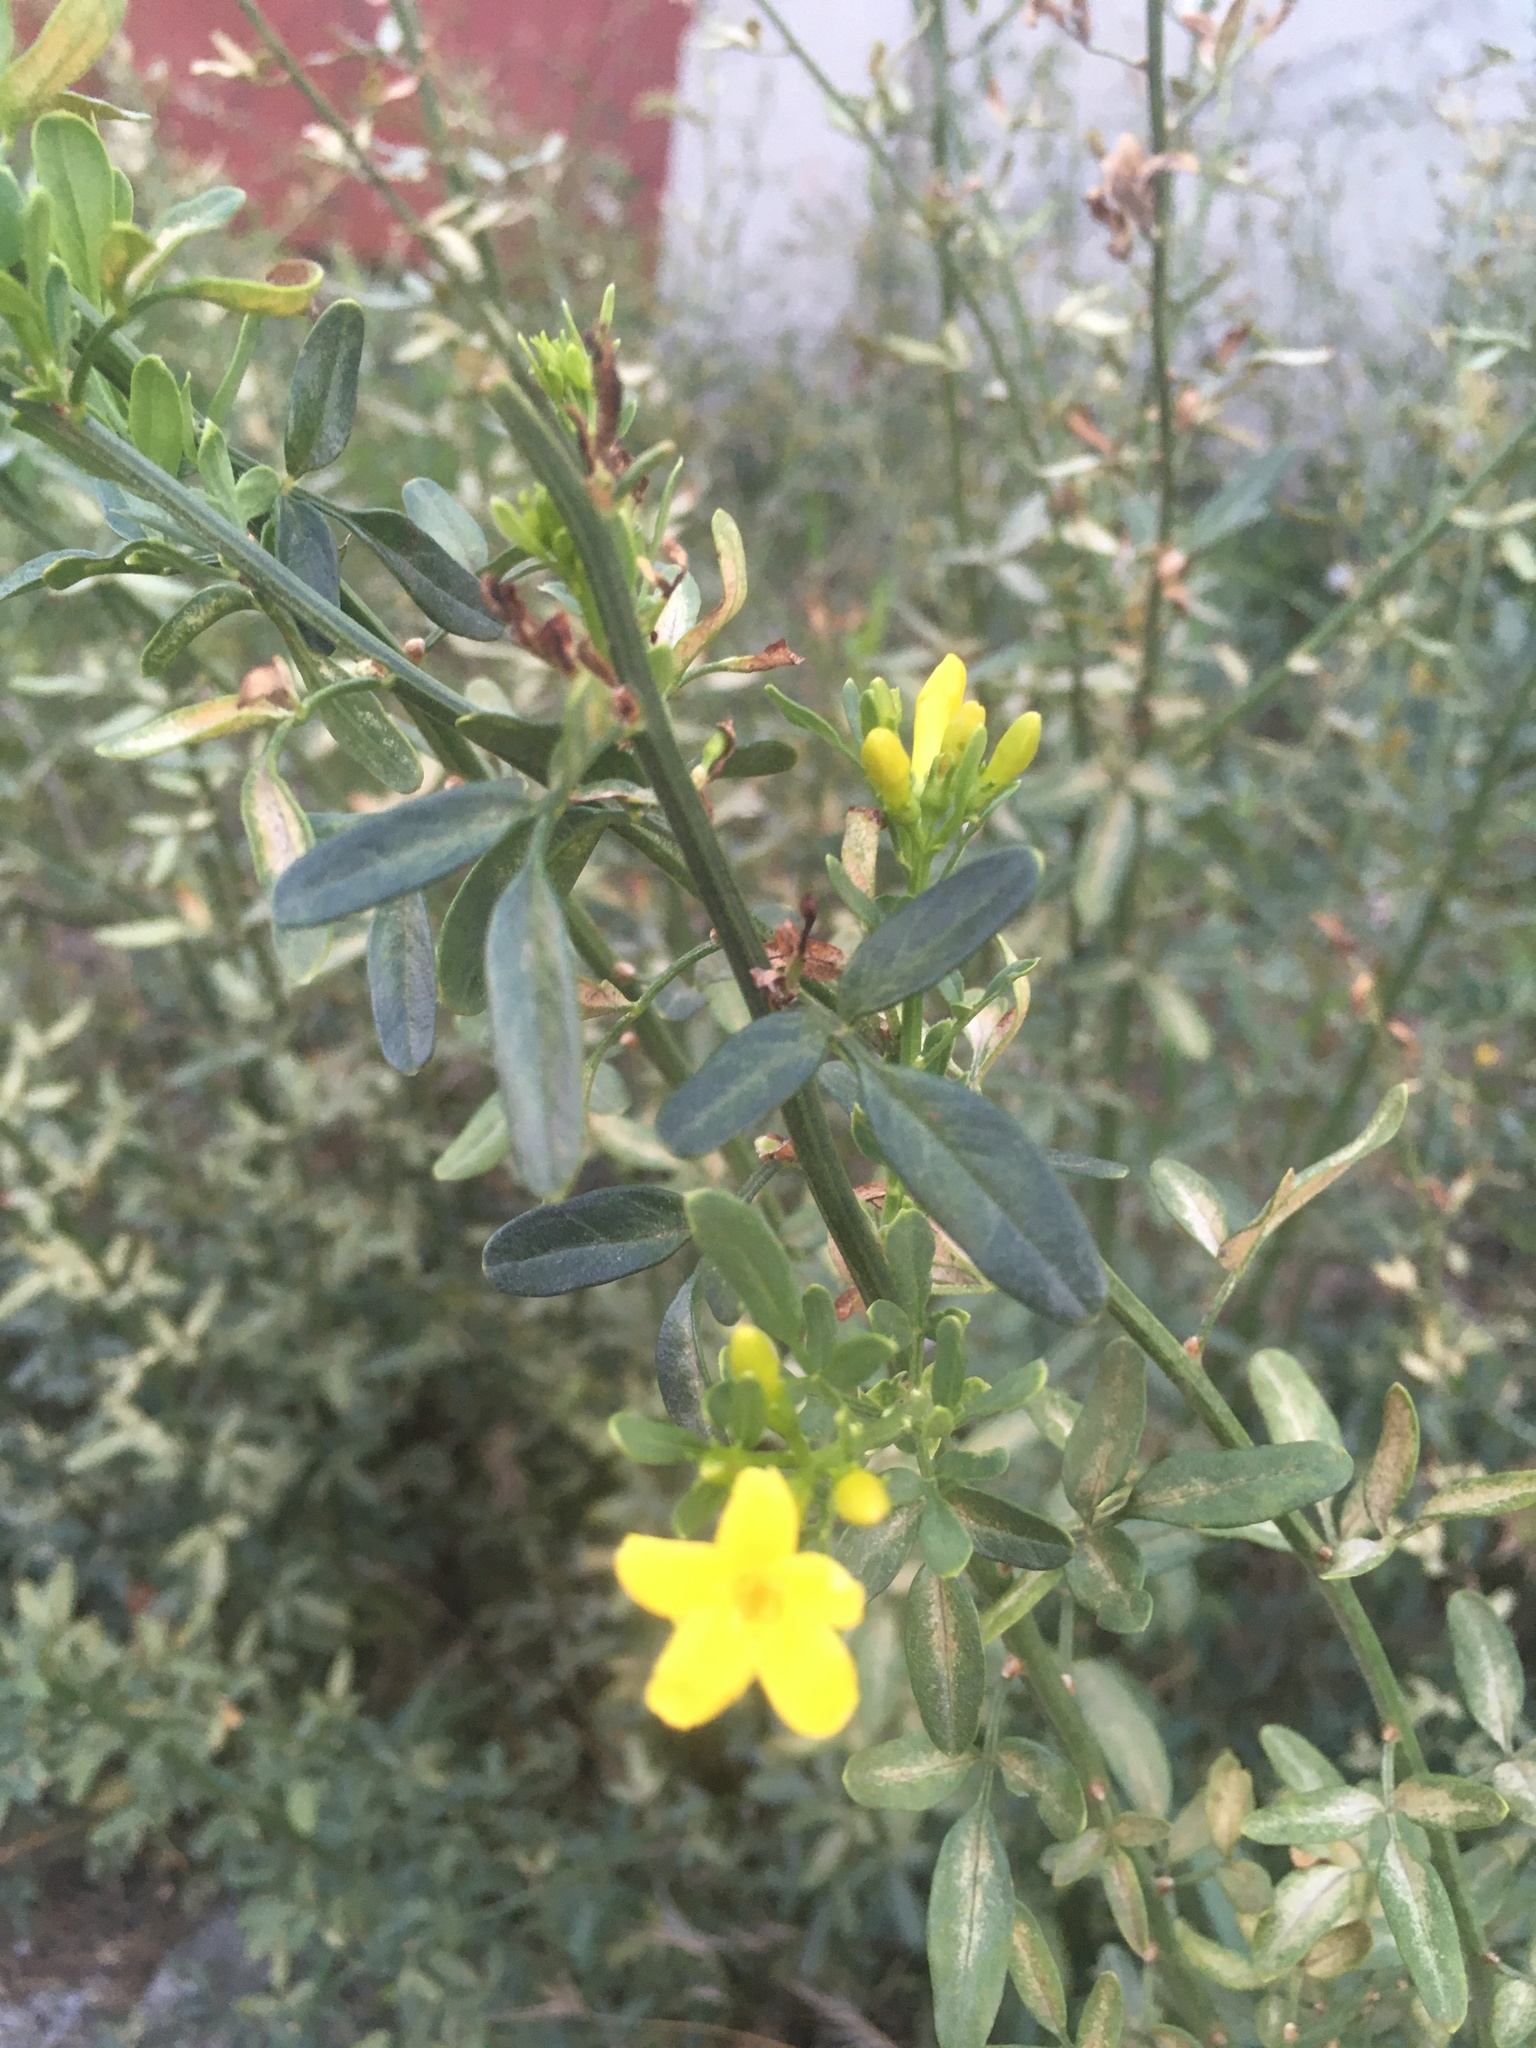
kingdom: Plantae
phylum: Tracheophyta
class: Magnoliopsida
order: Lamiales
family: Oleaceae
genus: Chrysojasminum
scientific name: Chrysojasminum fruticans
